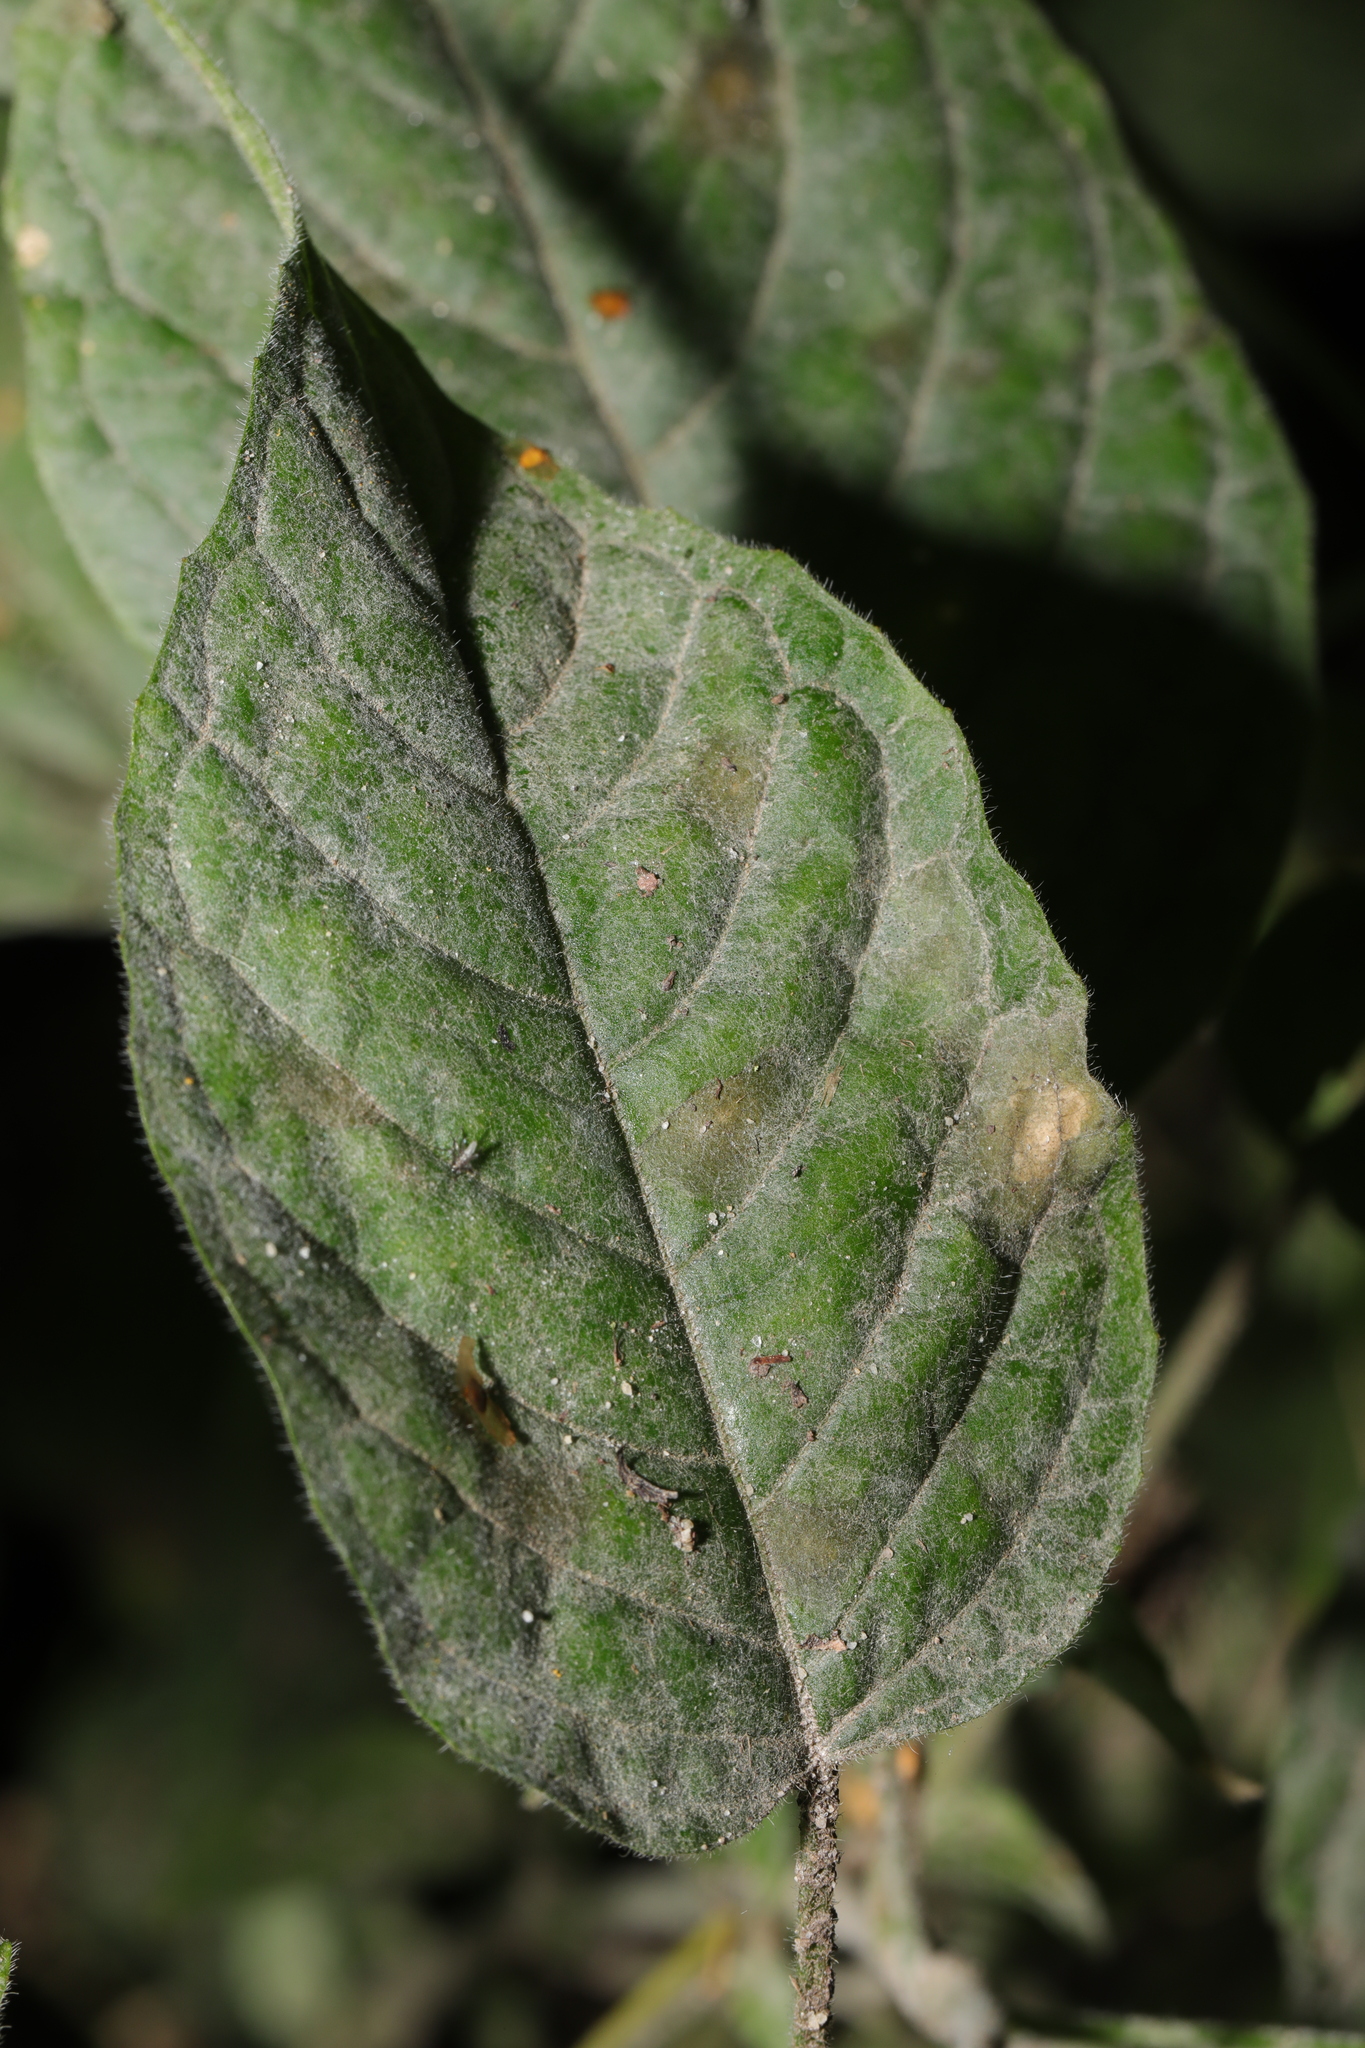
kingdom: Fungi
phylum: Ascomycota
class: Leotiomycetes
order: Helotiales
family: Erysiphaceae
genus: Erysiphe
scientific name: Erysiphe circaeae
